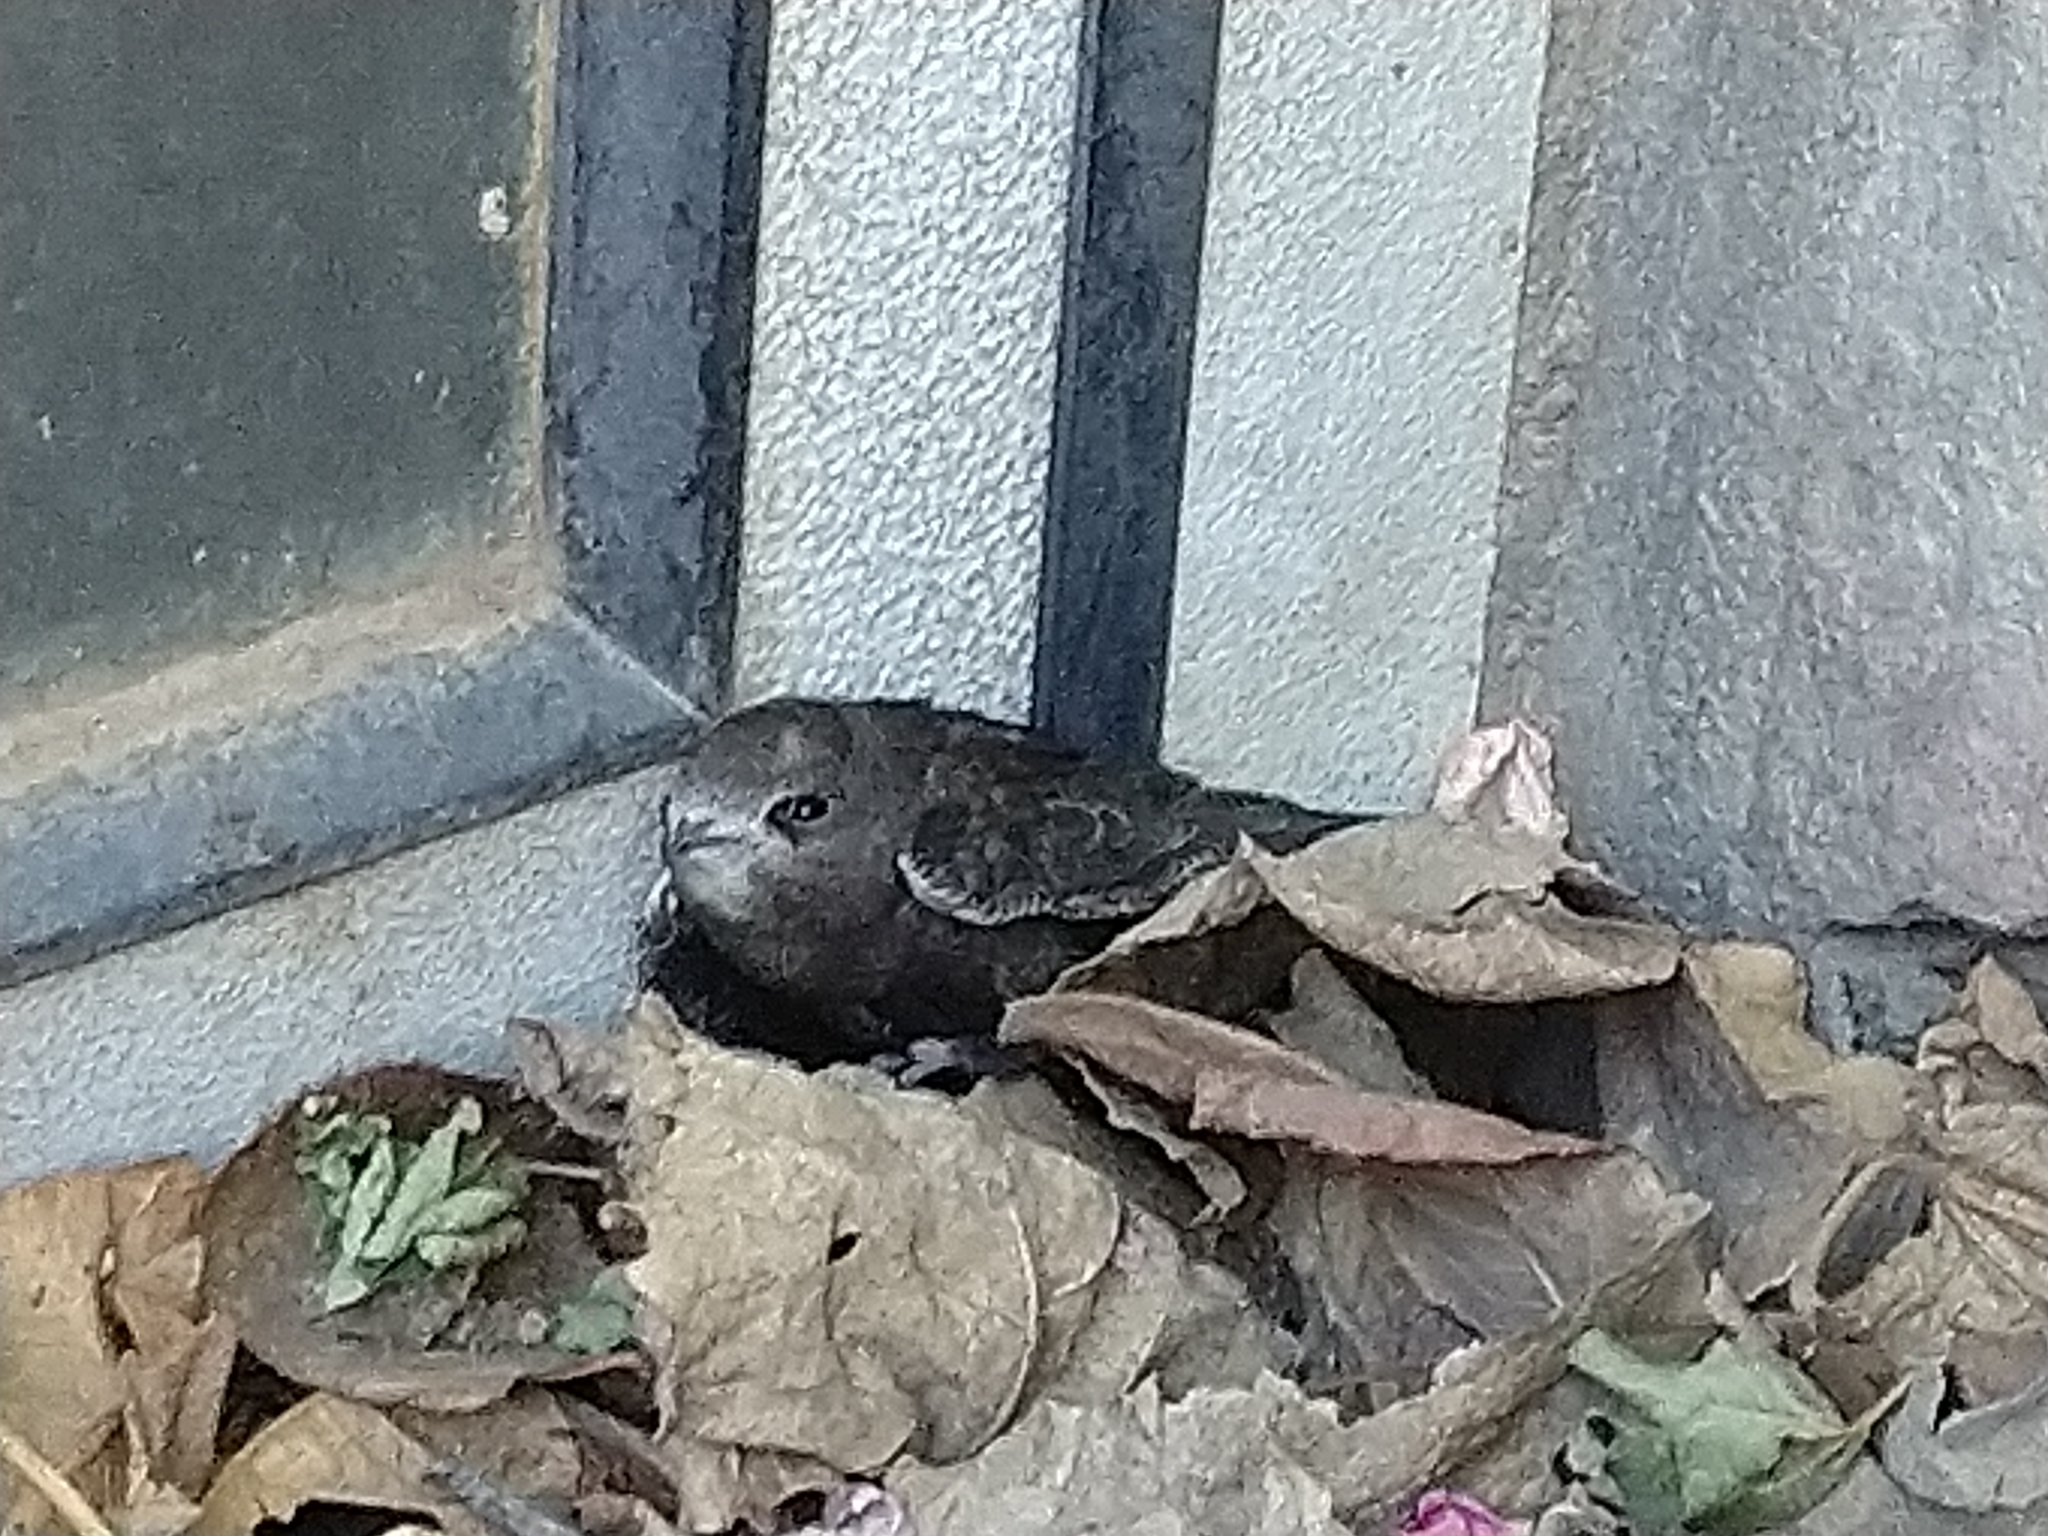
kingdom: Animalia
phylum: Chordata
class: Aves
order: Apodiformes
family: Apodidae
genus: Apus
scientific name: Apus apus
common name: Common swift
